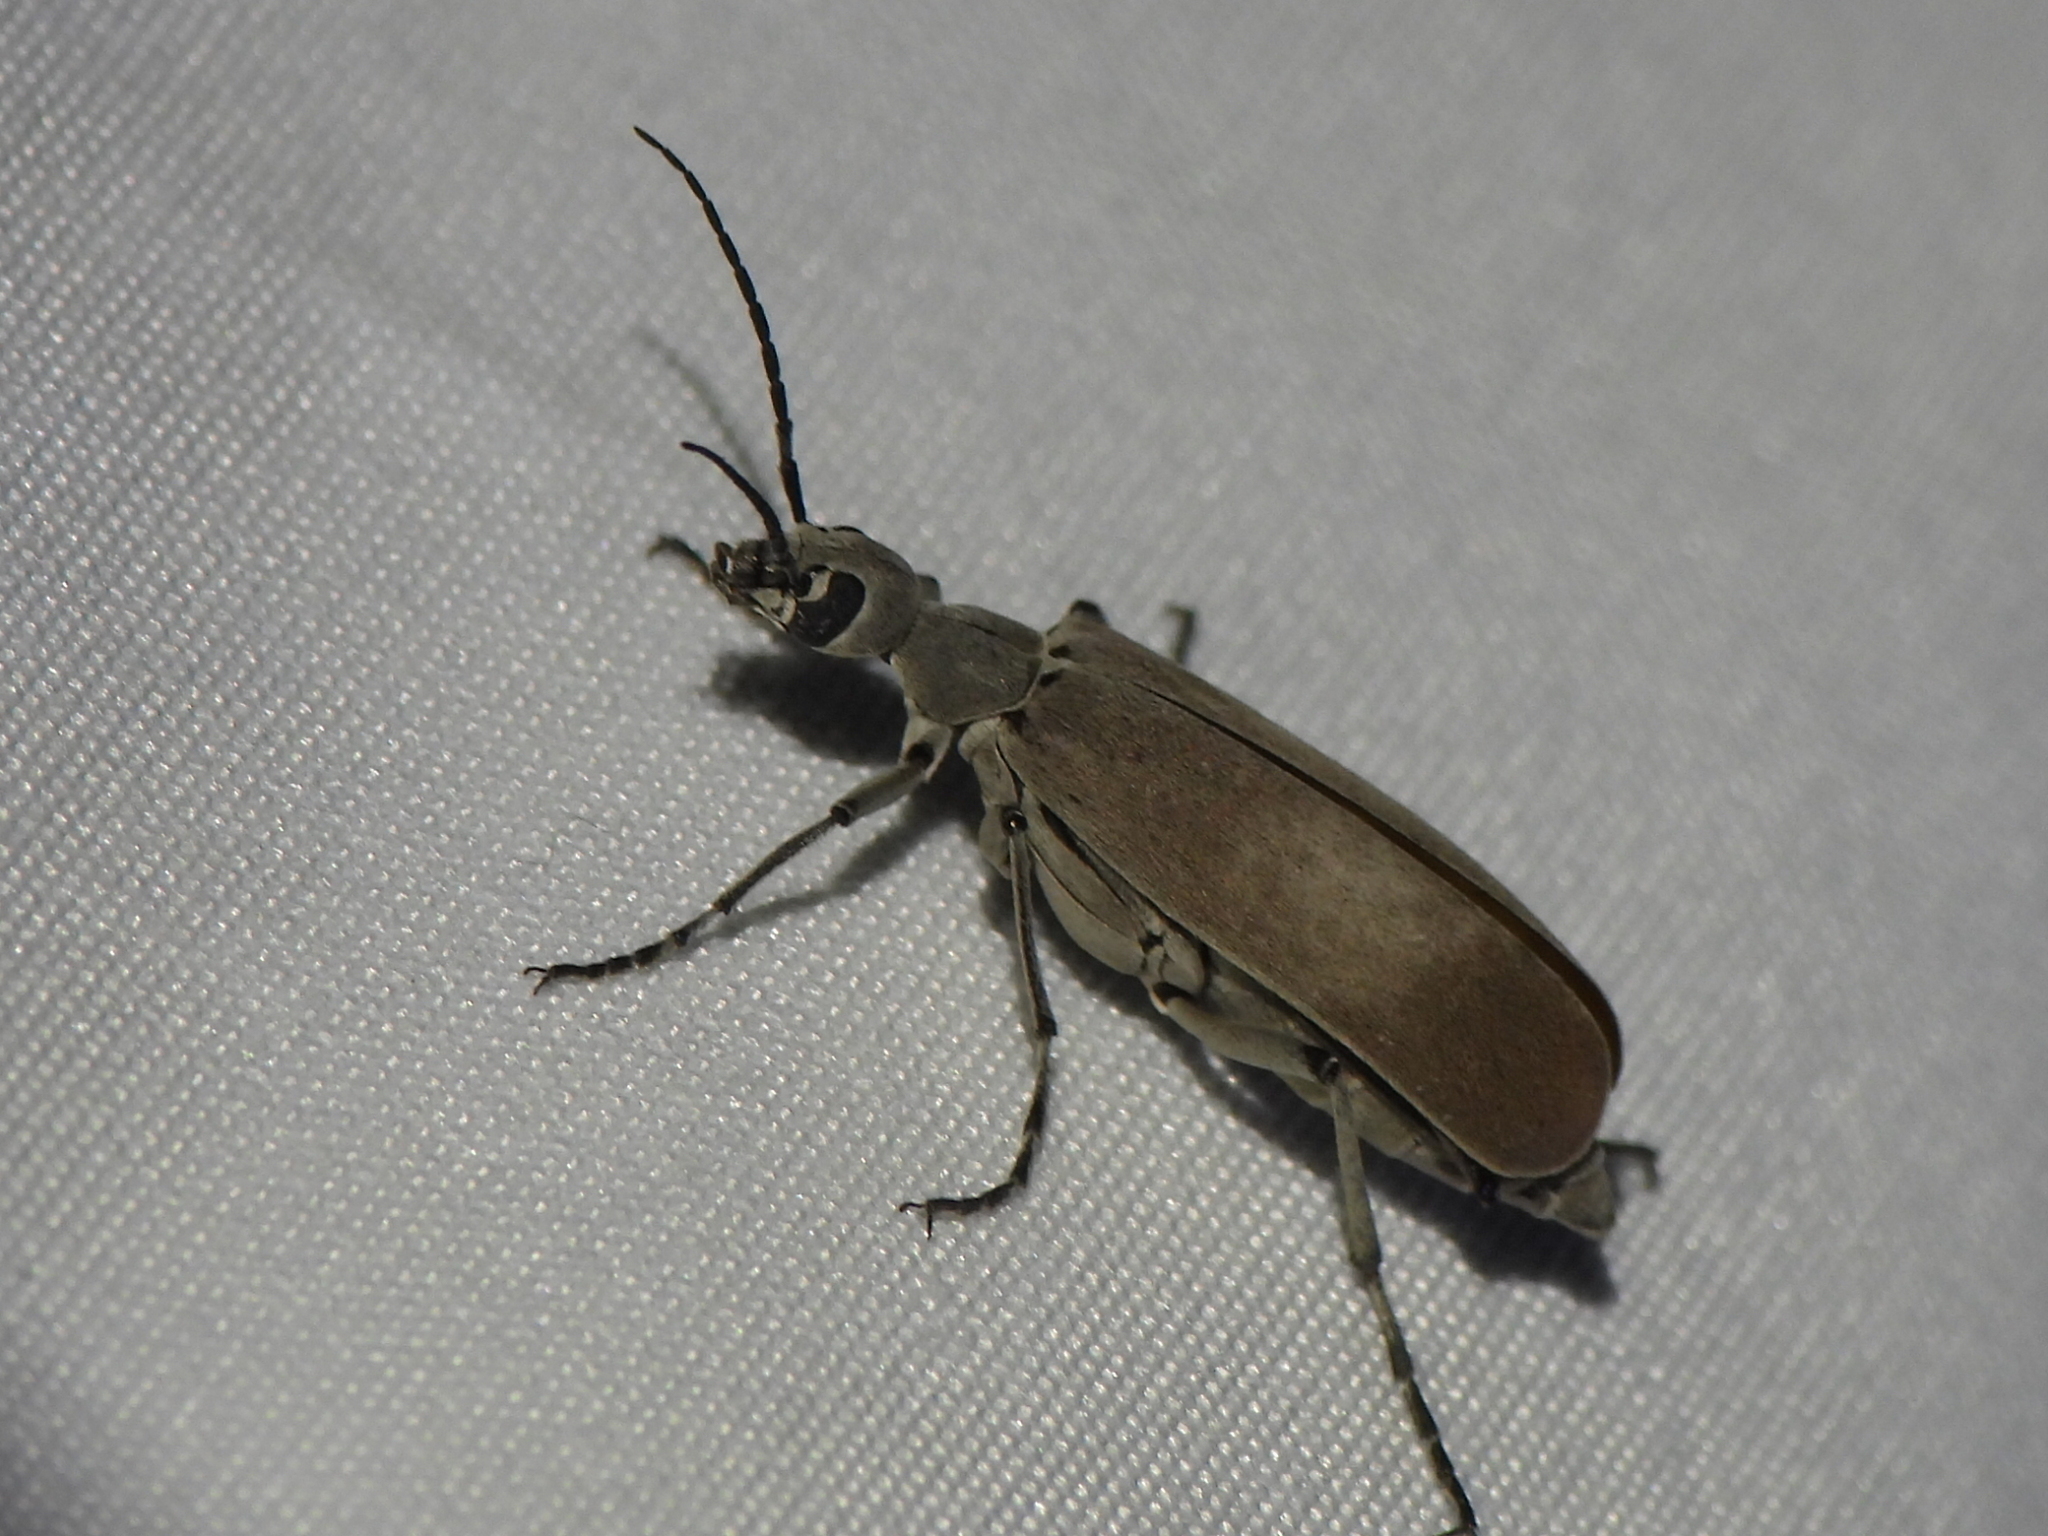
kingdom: Animalia
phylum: Arthropoda
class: Insecta
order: Coleoptera
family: Meloidae
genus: Epicauta
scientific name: Epicauta polingi
